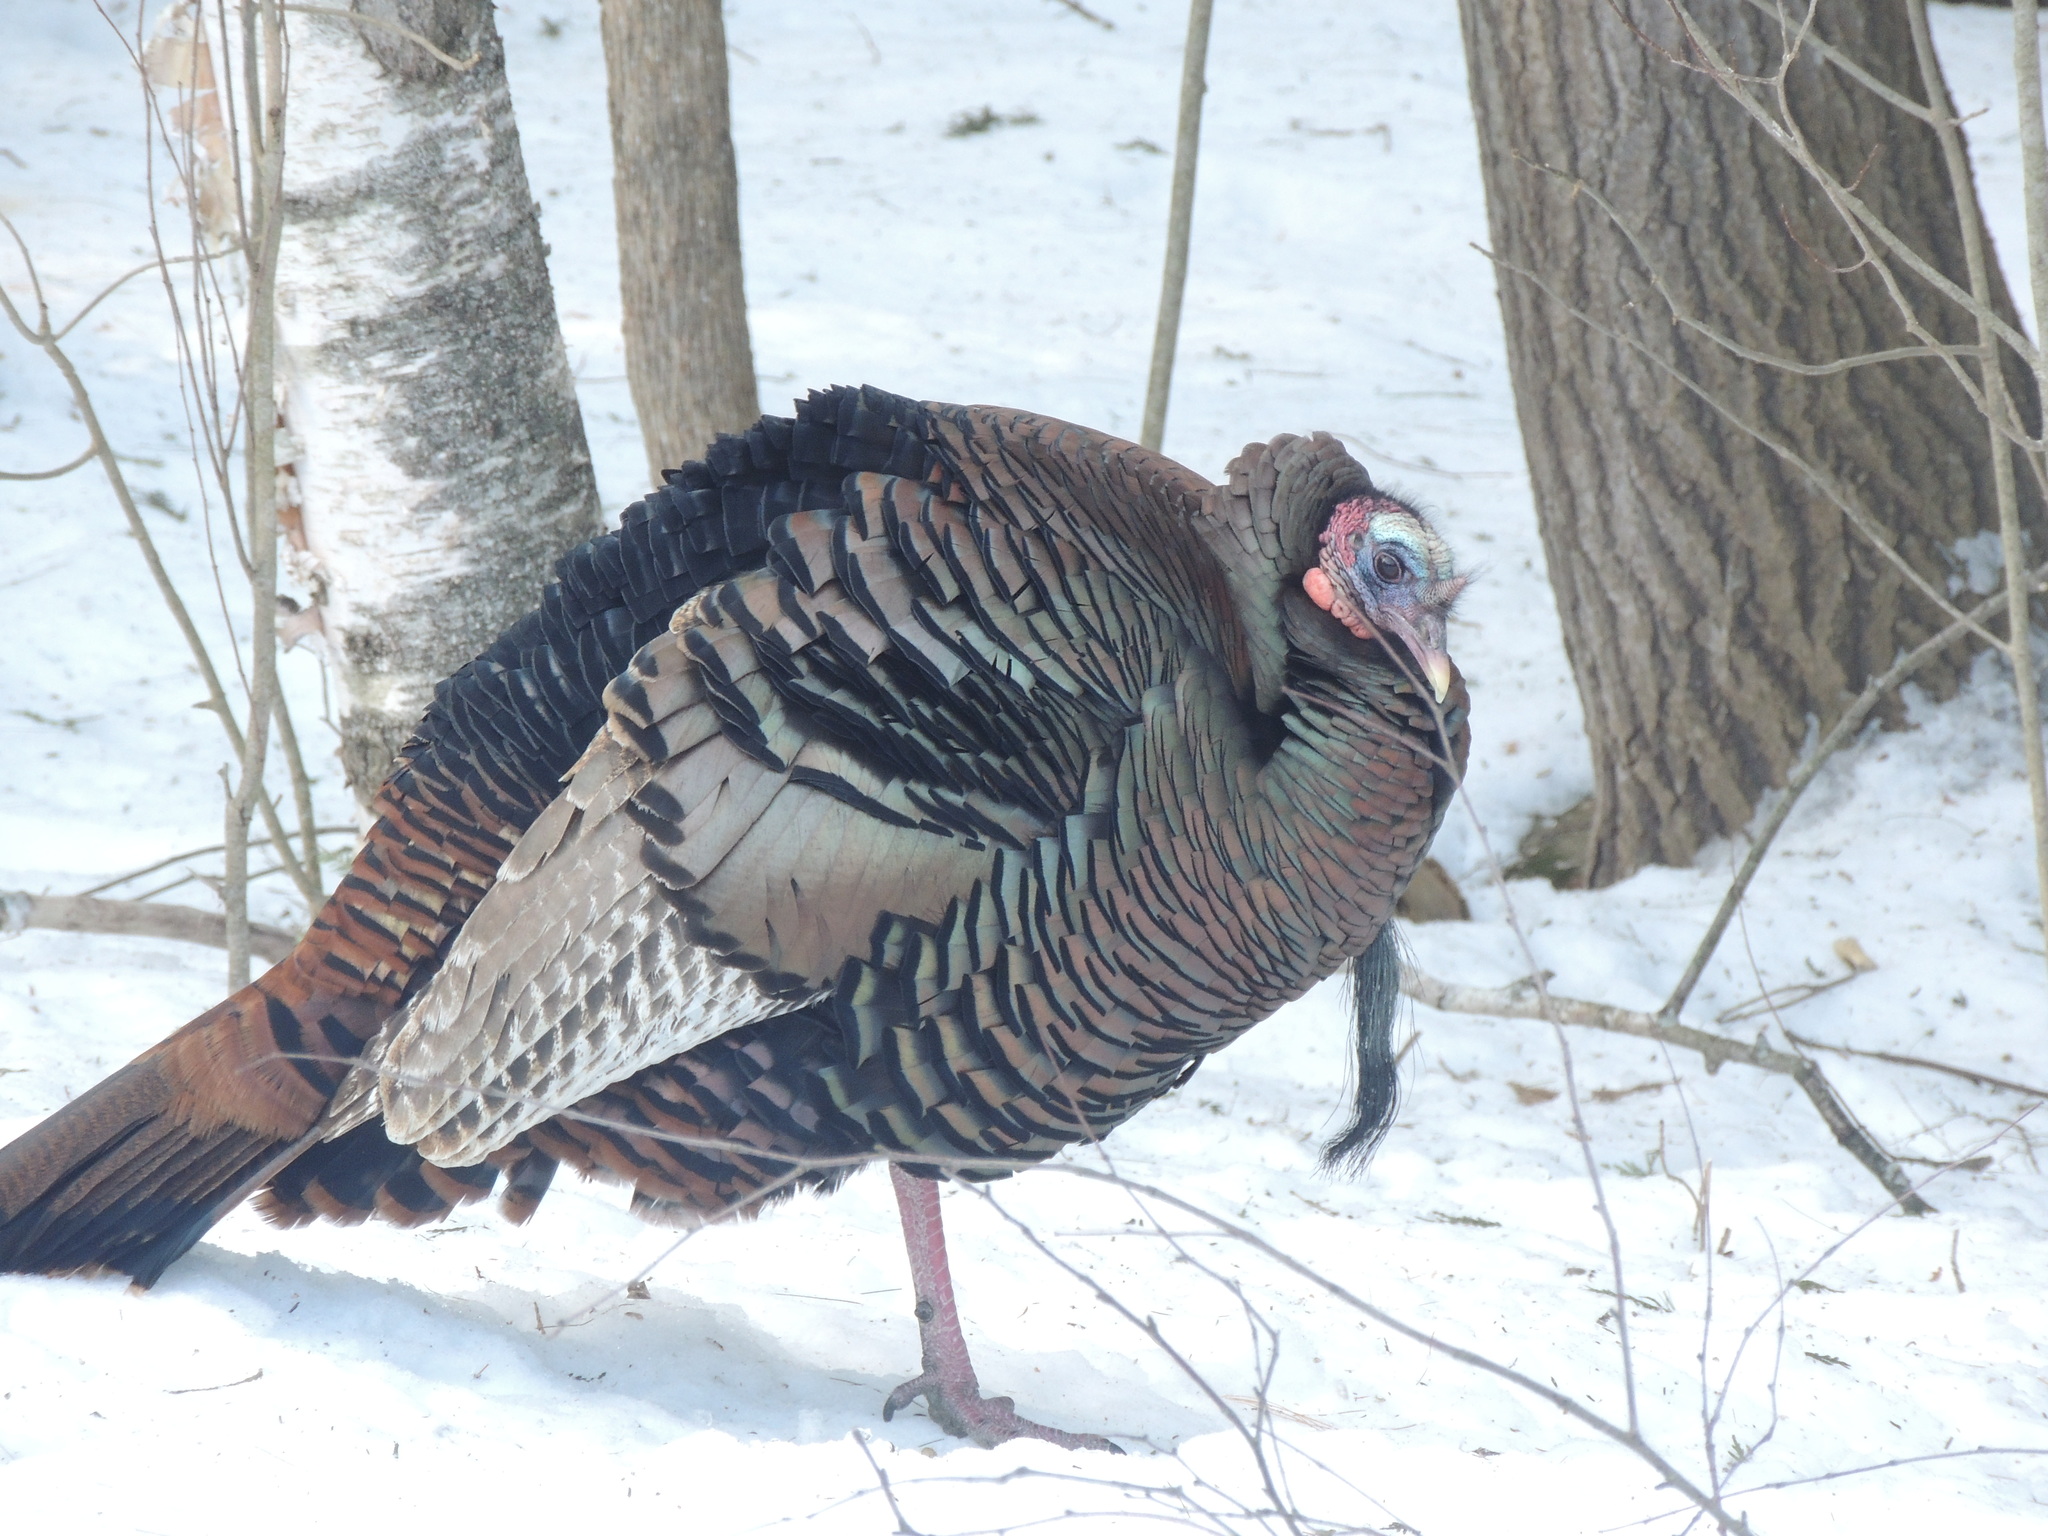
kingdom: Animalia
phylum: Chordata
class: Aves
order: Galliformes
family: Phasianidae
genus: Meleagris
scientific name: Meleagris gallopavo
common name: Wild turkey
